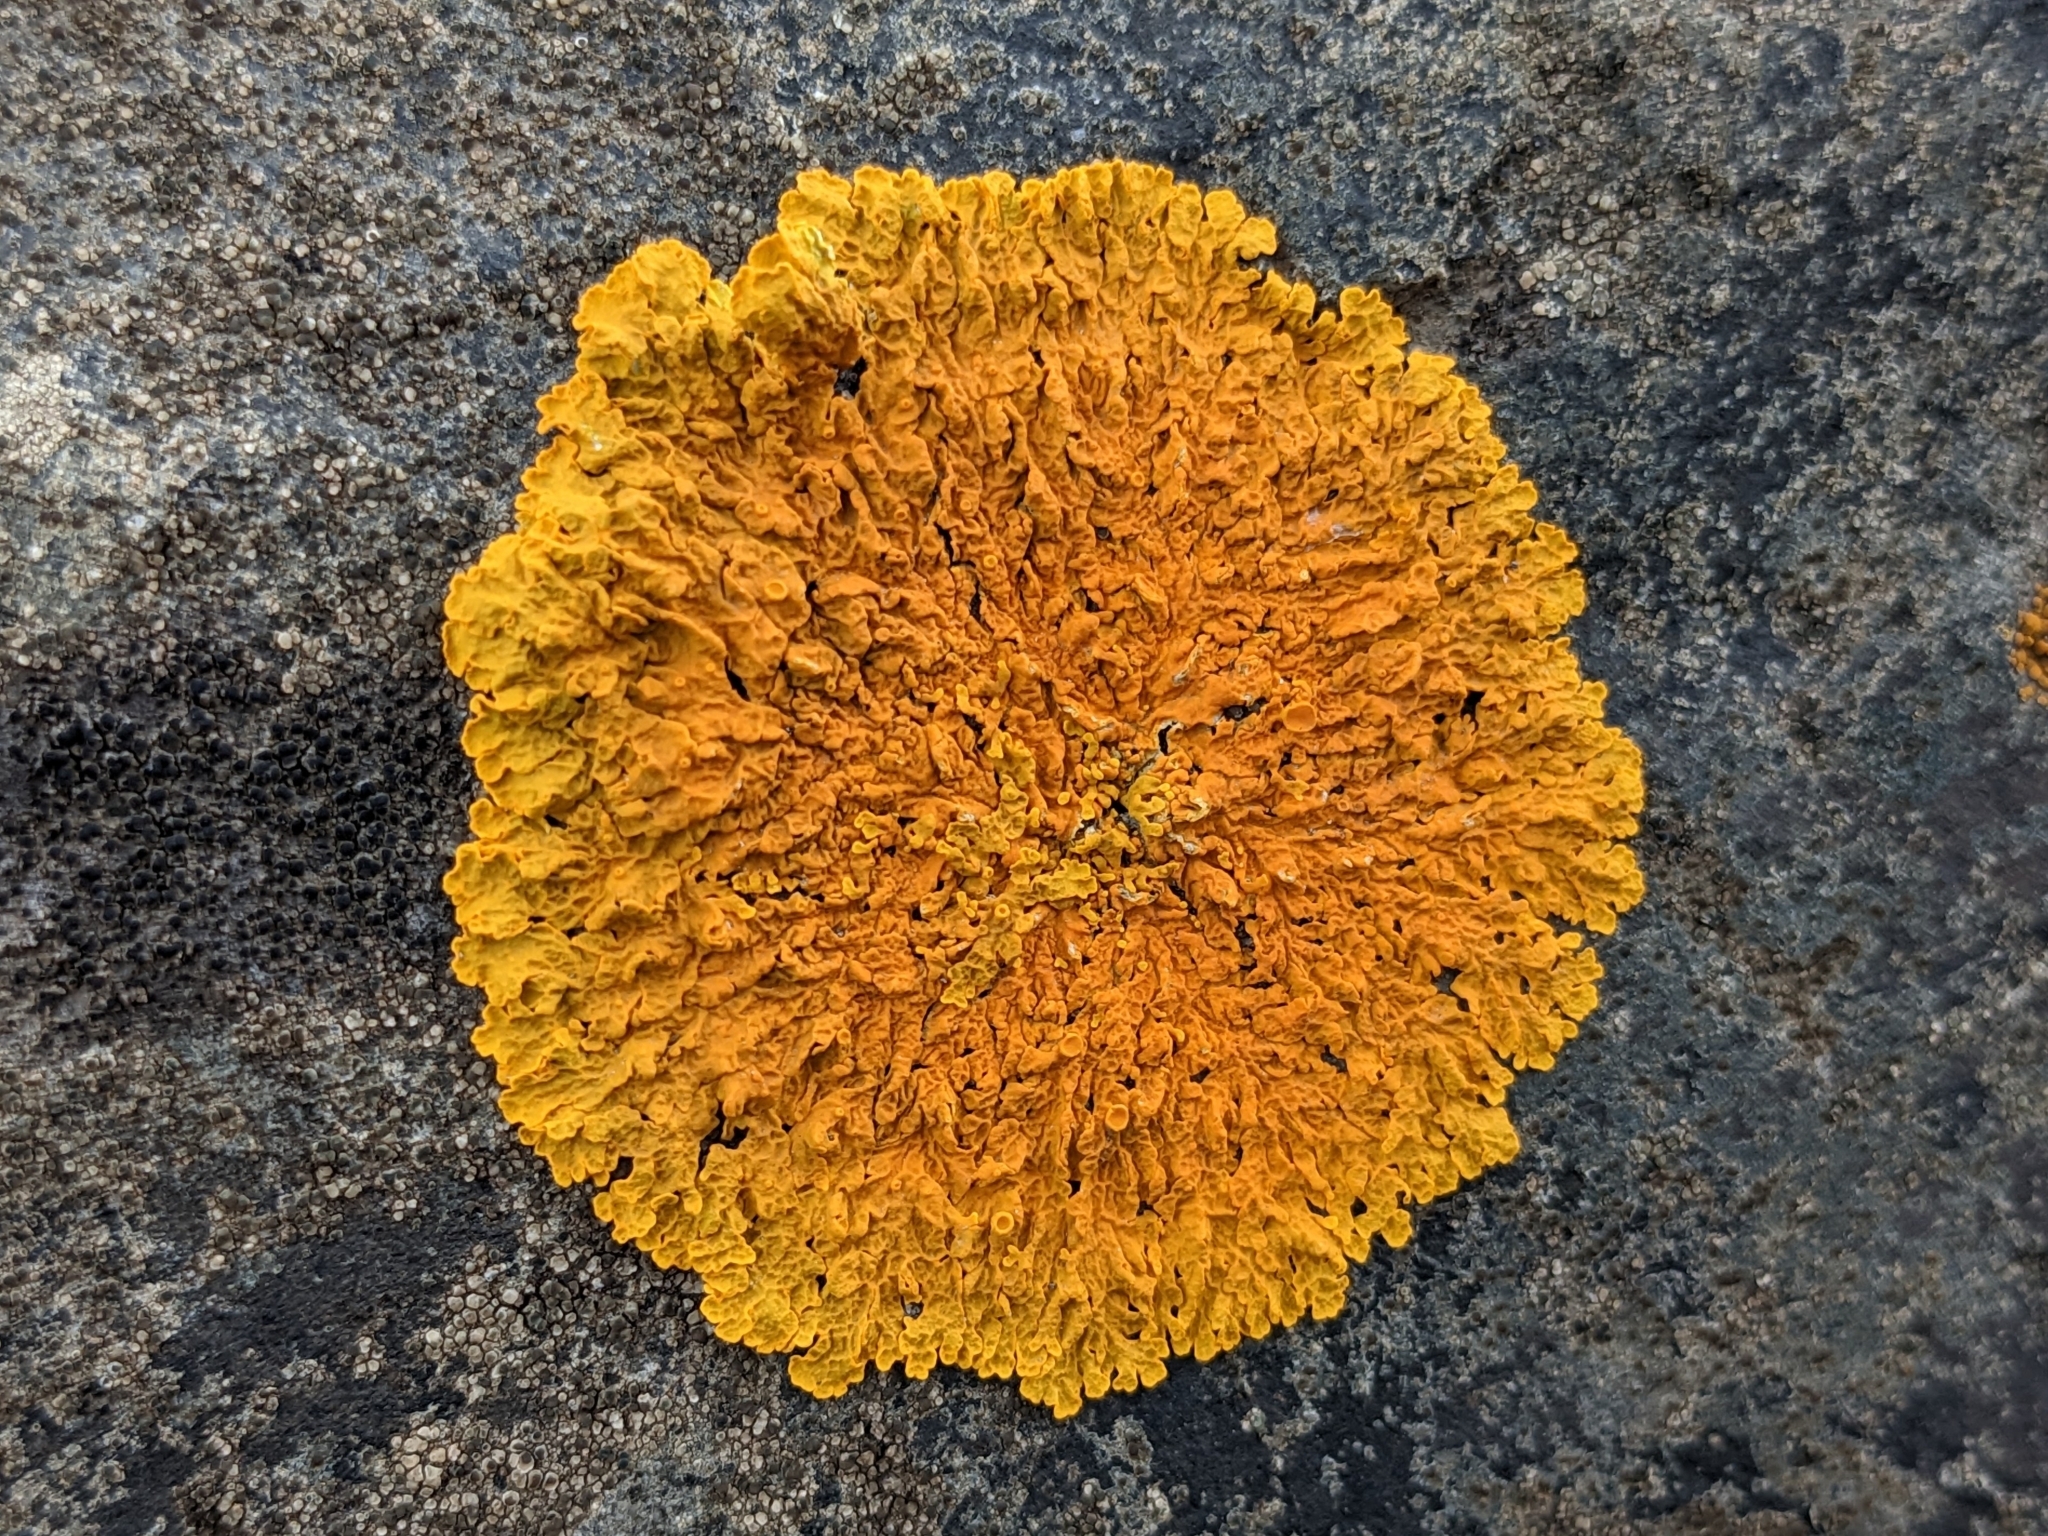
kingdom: Fungi
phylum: Ascomycota
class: Lecanoromycetes
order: Teloschistales
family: Teloschistaceae
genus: Xanthoria
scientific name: Xanthoria parietina
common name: Common orange lichen
